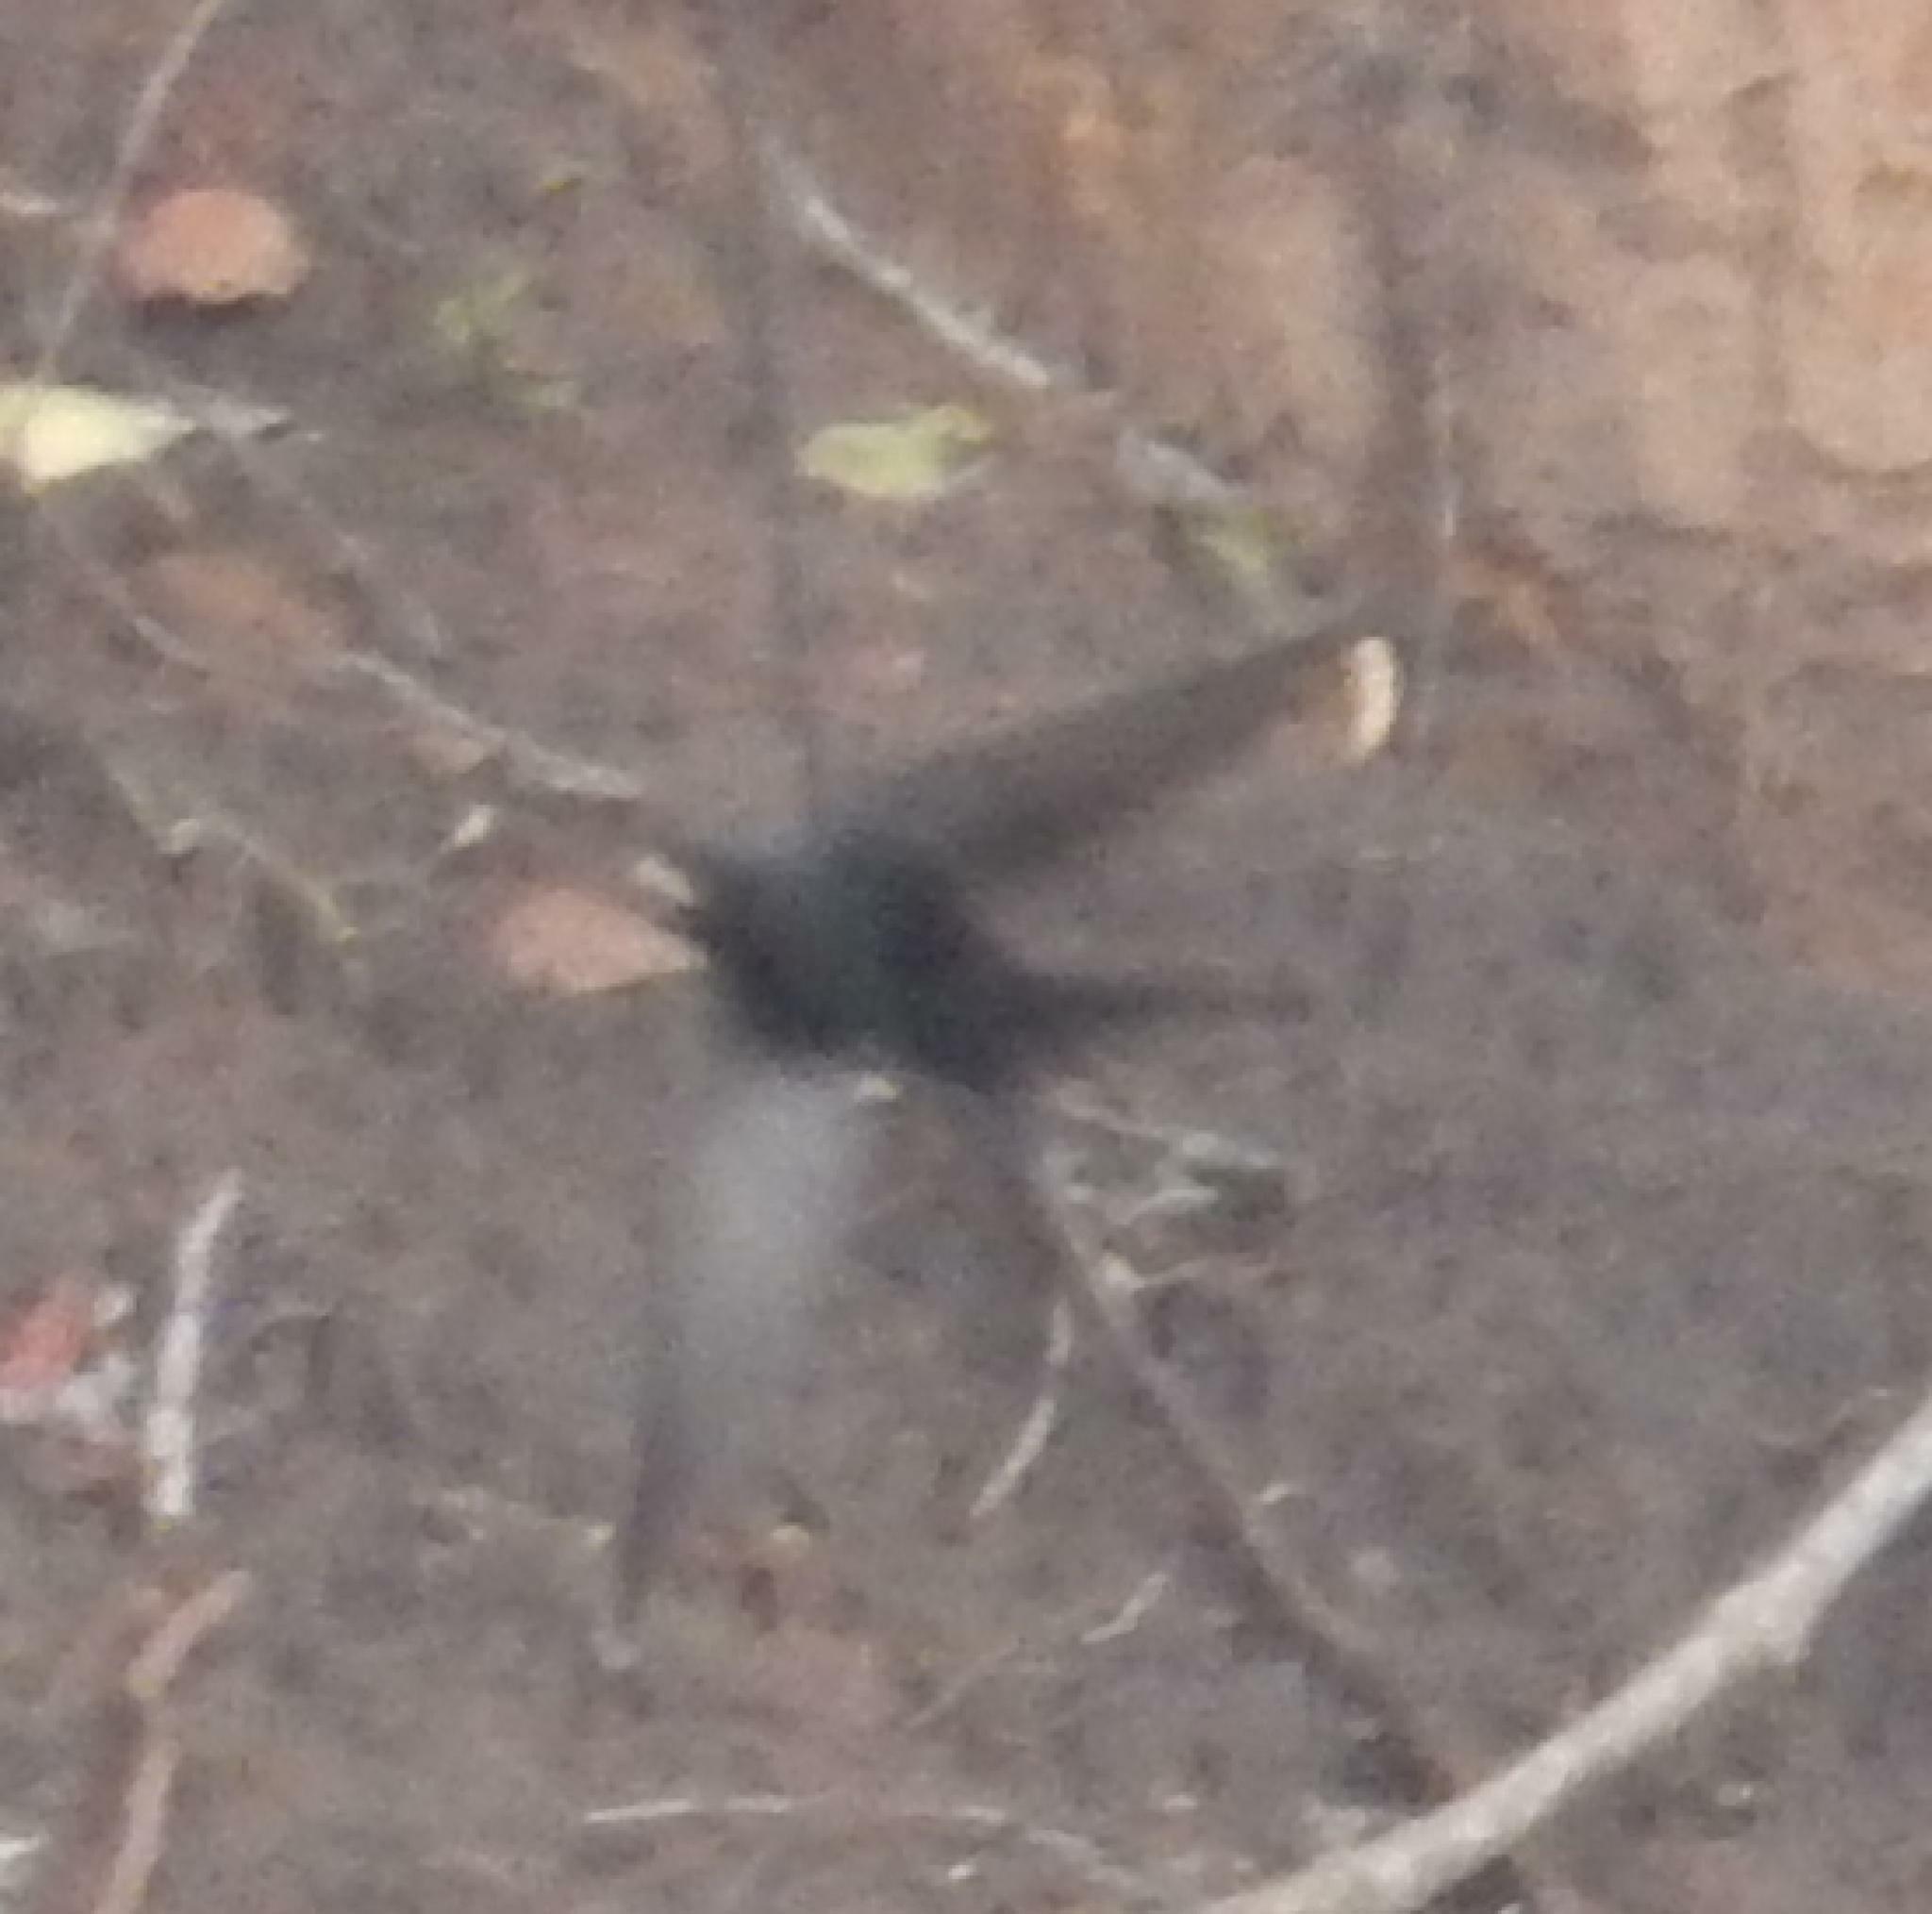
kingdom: Animalia
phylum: Chordata
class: Aves
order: Passeriformes
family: Hirundinidae
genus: Psalidoprocne
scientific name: Psalidoprocne pristoptera
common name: Black saw-wing
